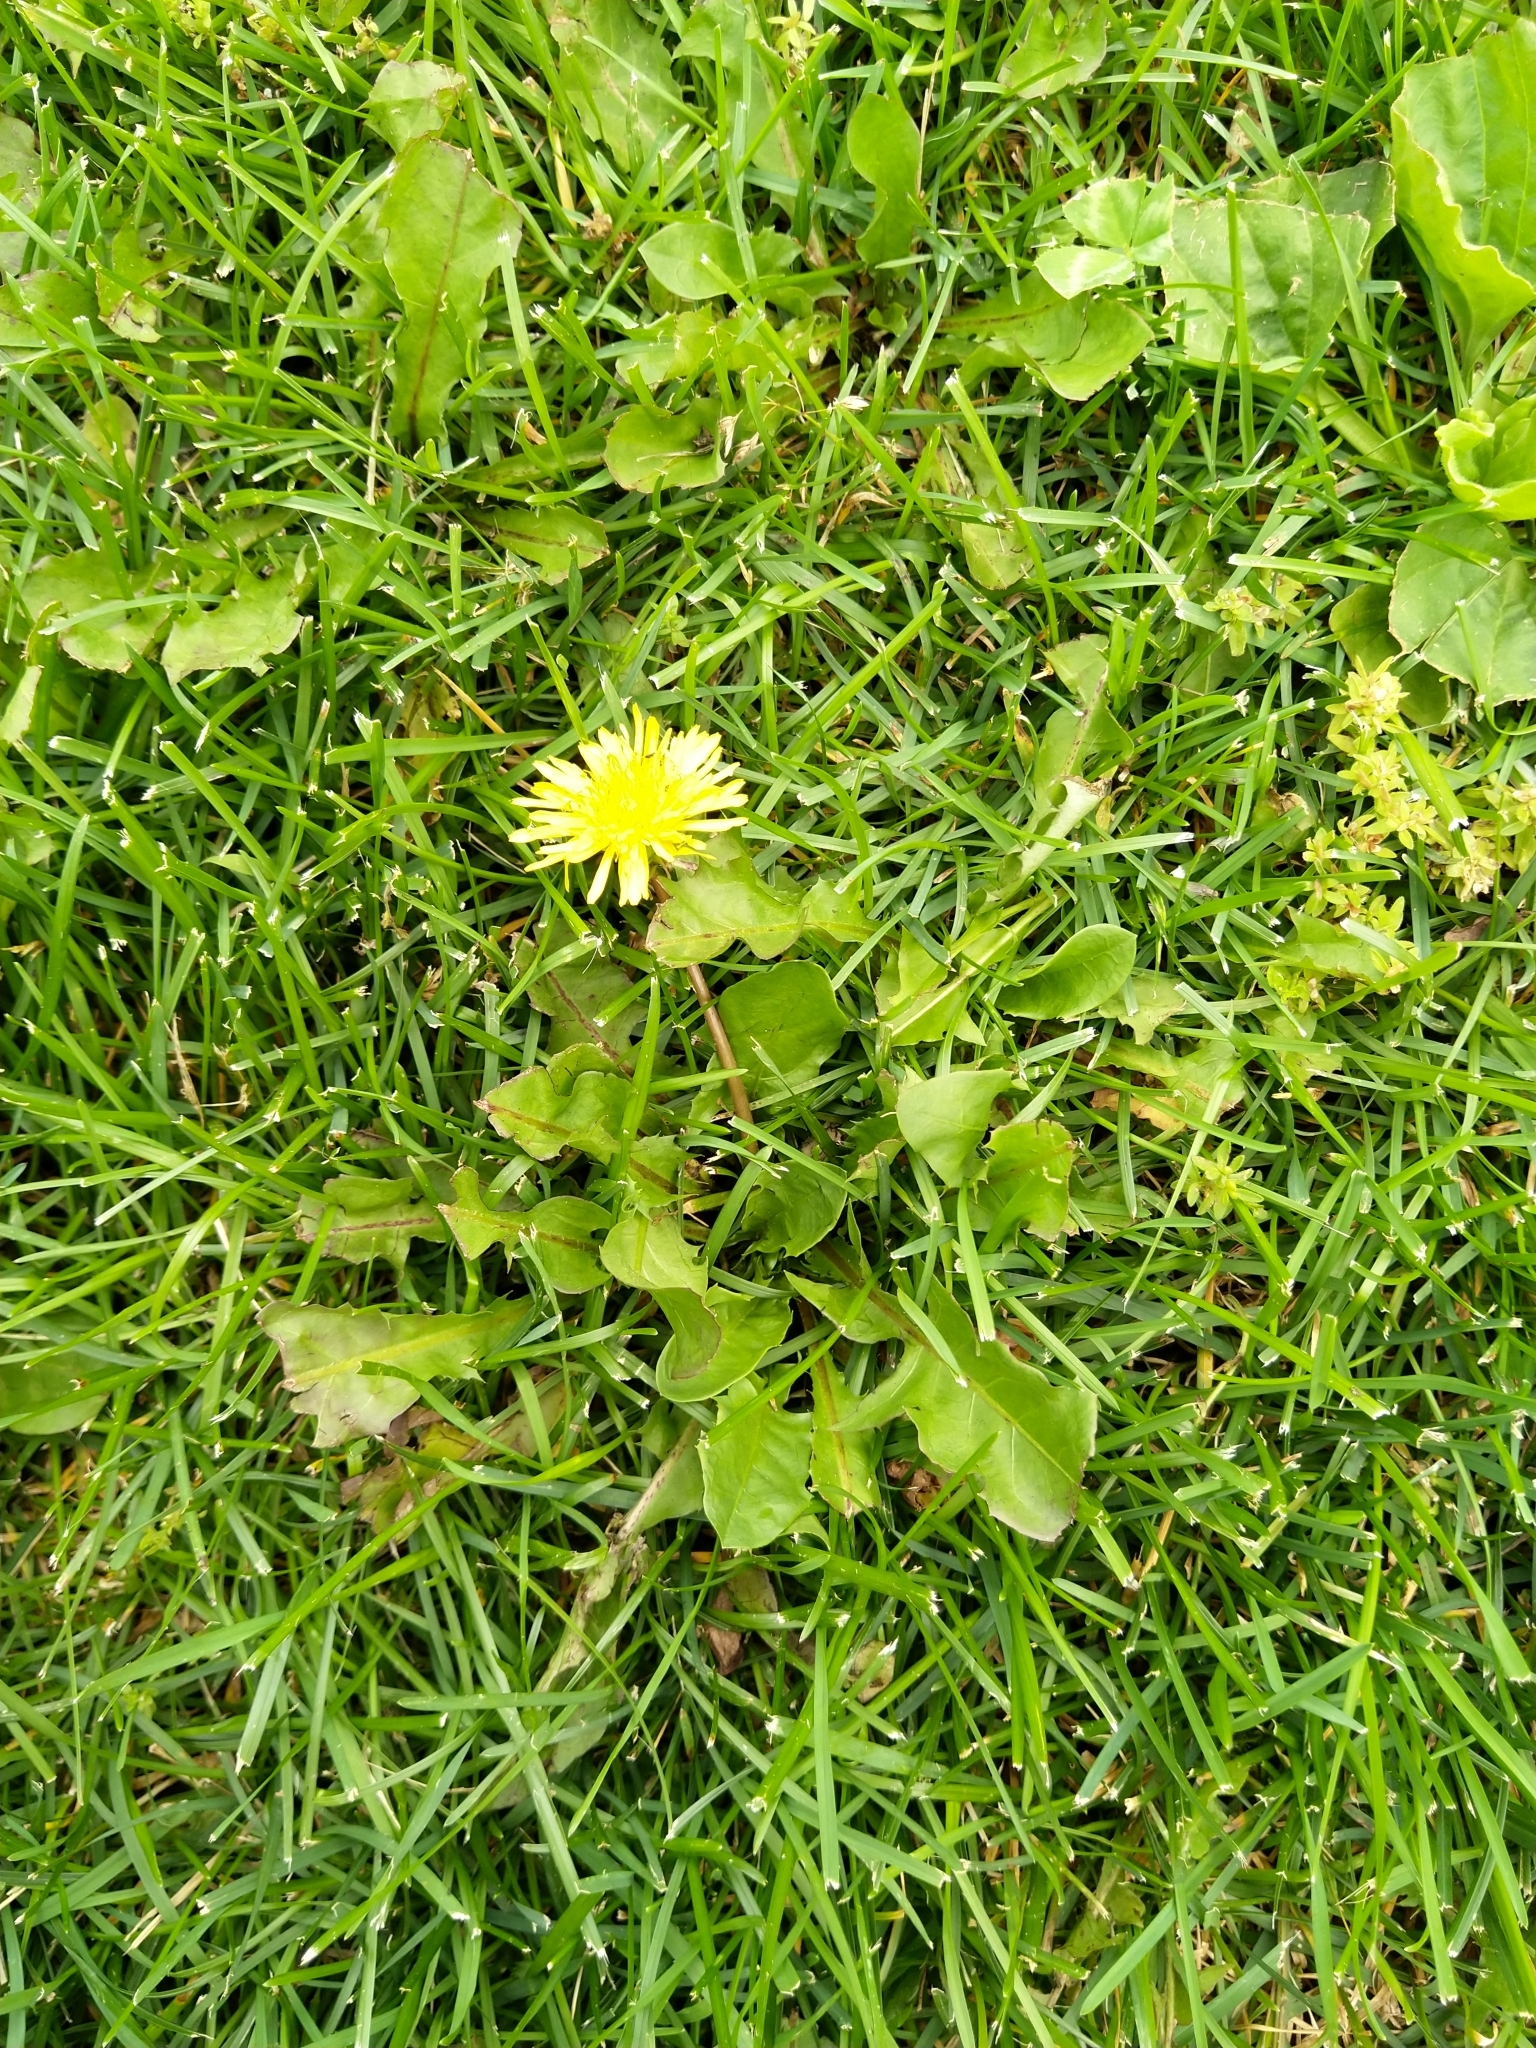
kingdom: Plantae
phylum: Tracheophyta
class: Magnoliopsida
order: Asterales
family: Asteraceae
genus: Taraxacum
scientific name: Taraxacum officinale
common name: Common dandelion
